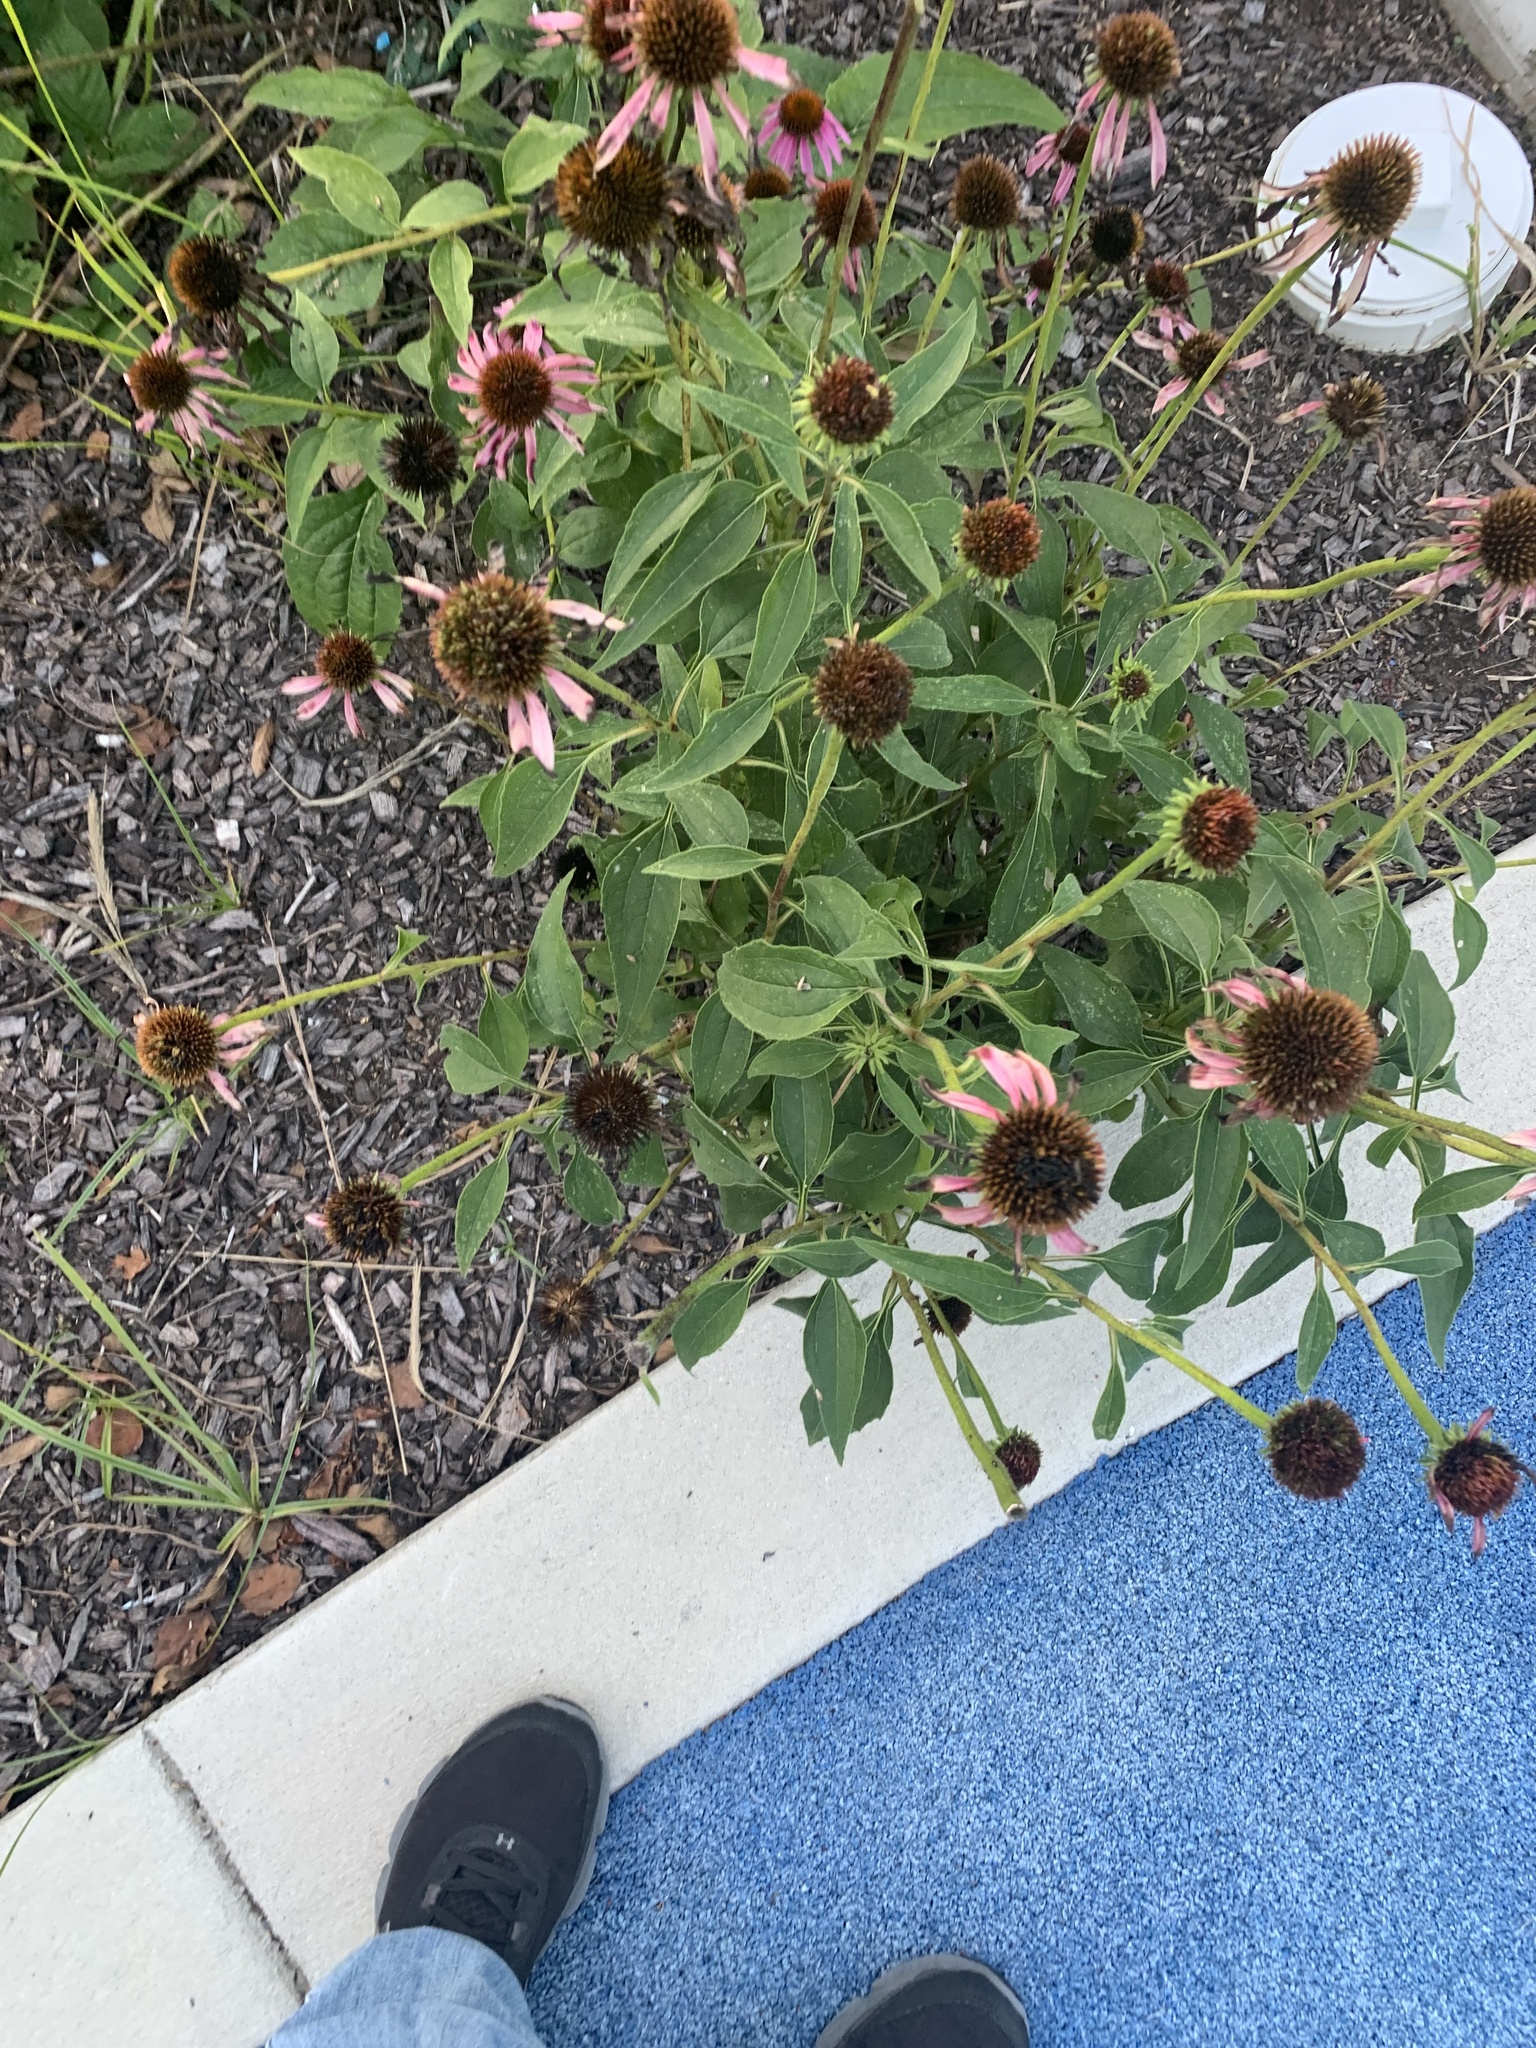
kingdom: Plantae
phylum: Tracheophyta
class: Magnoliopsida
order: Asterales
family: Asteraceae
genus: Echinacea
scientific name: Echinacea purpurea
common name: Broad-leaved purple coneflower
